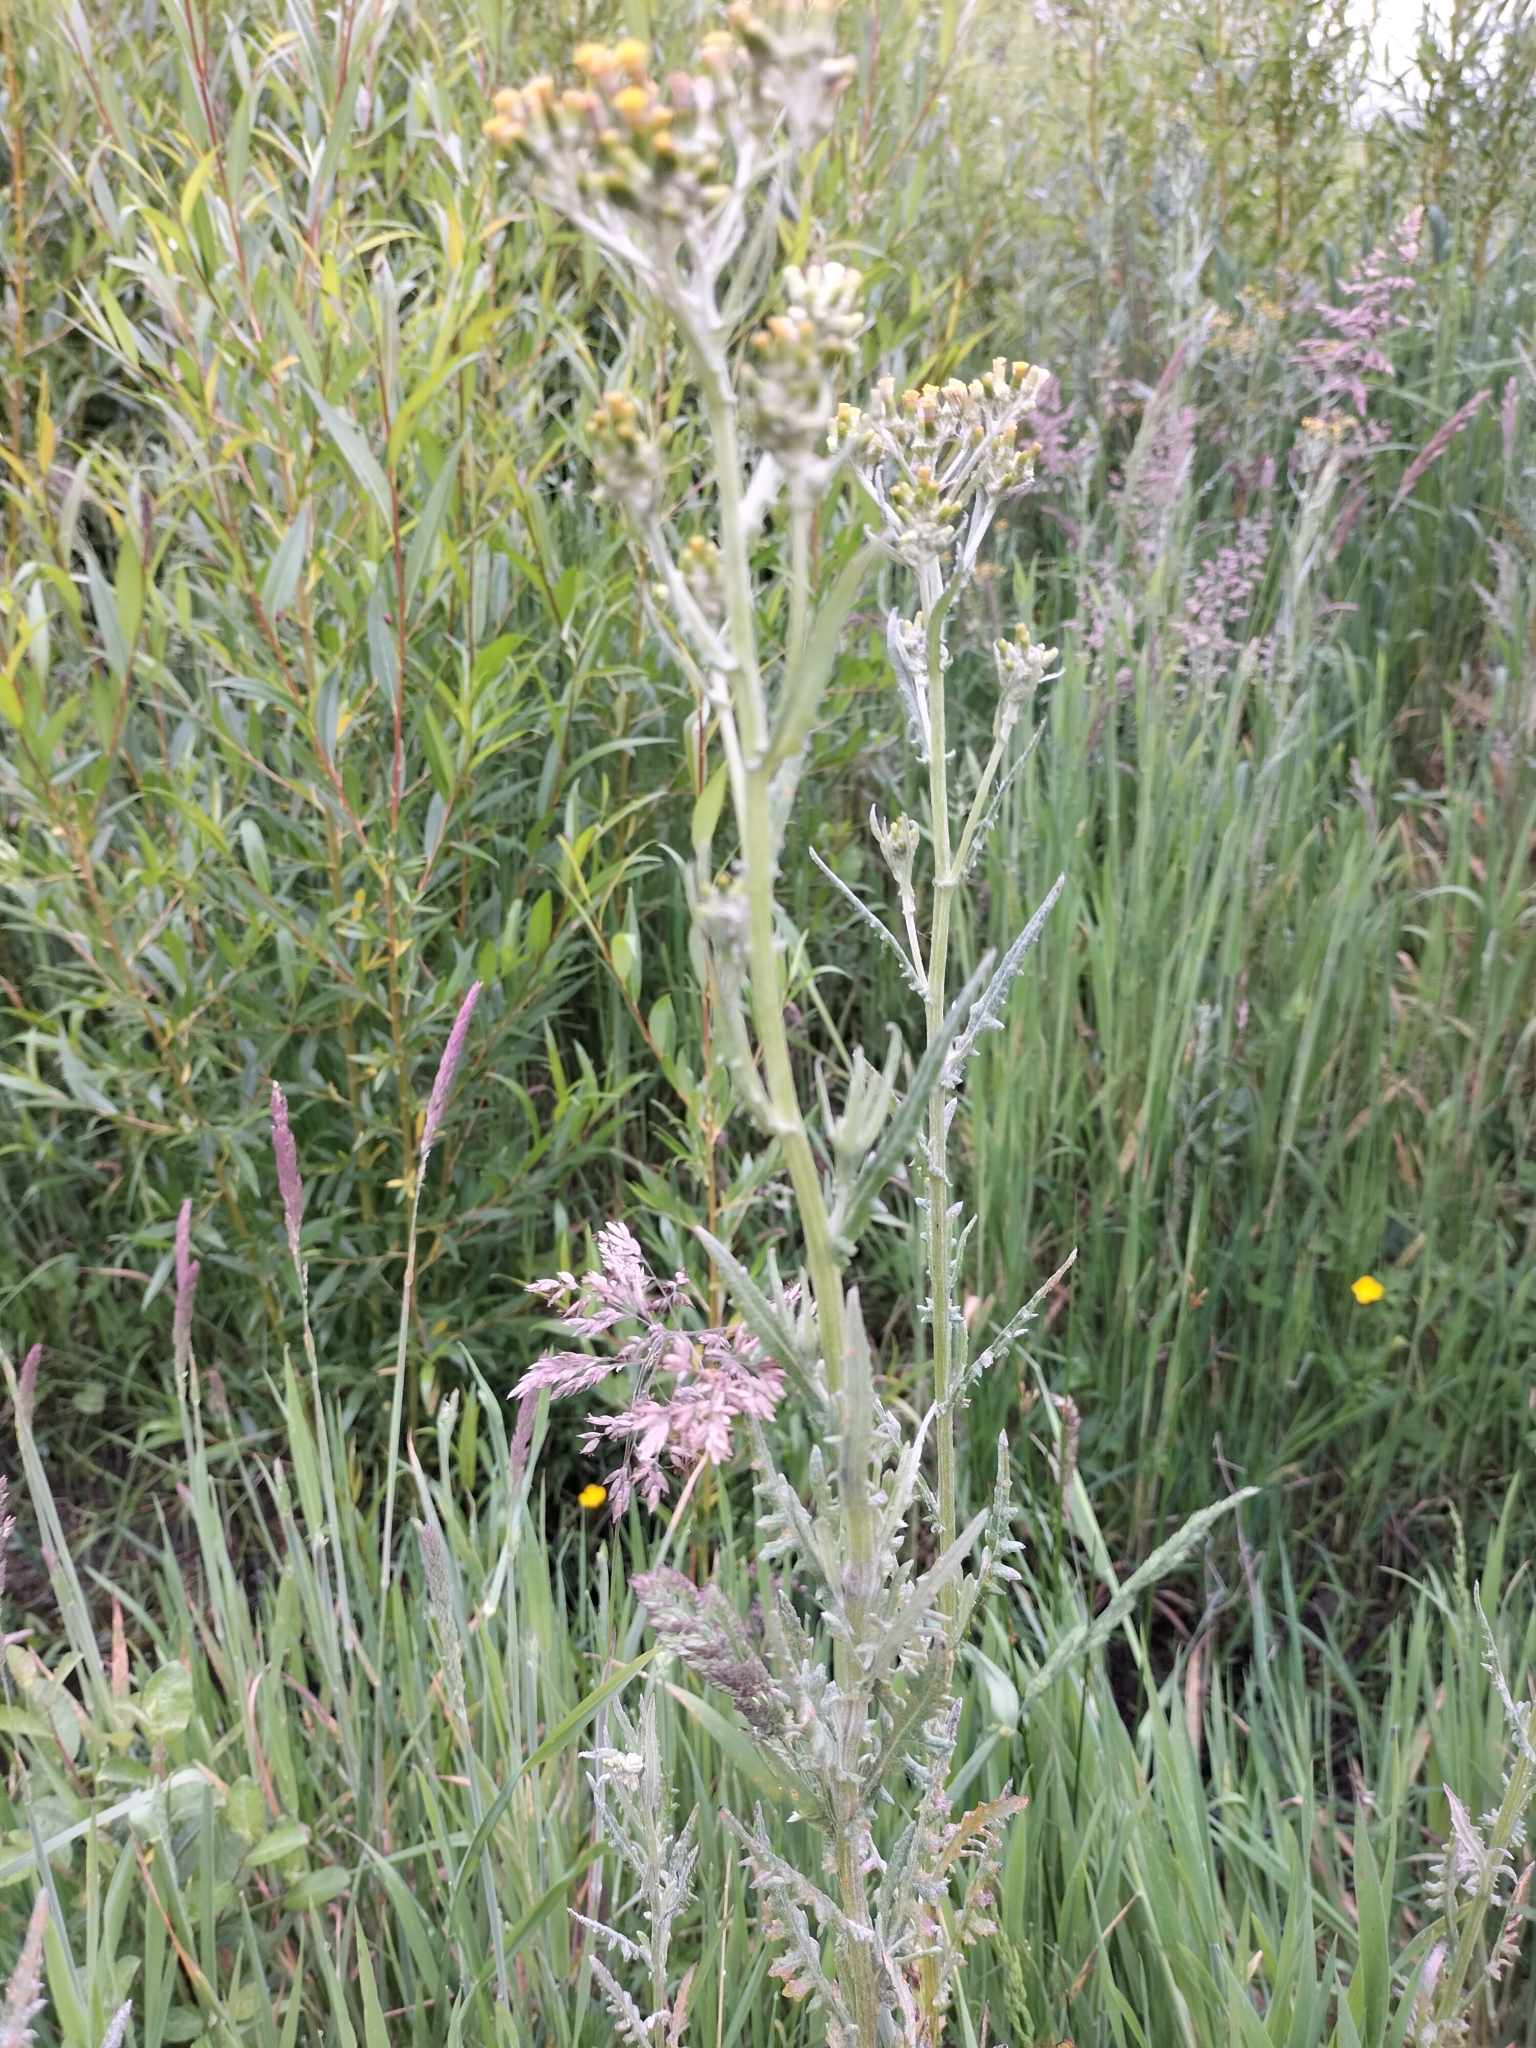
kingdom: Plantae
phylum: Tracheophyta
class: Magnoliopsida
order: Asterales
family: Asteraceae
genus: Senecio
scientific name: Senecio glomeratus
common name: Cutleaf burnweed
